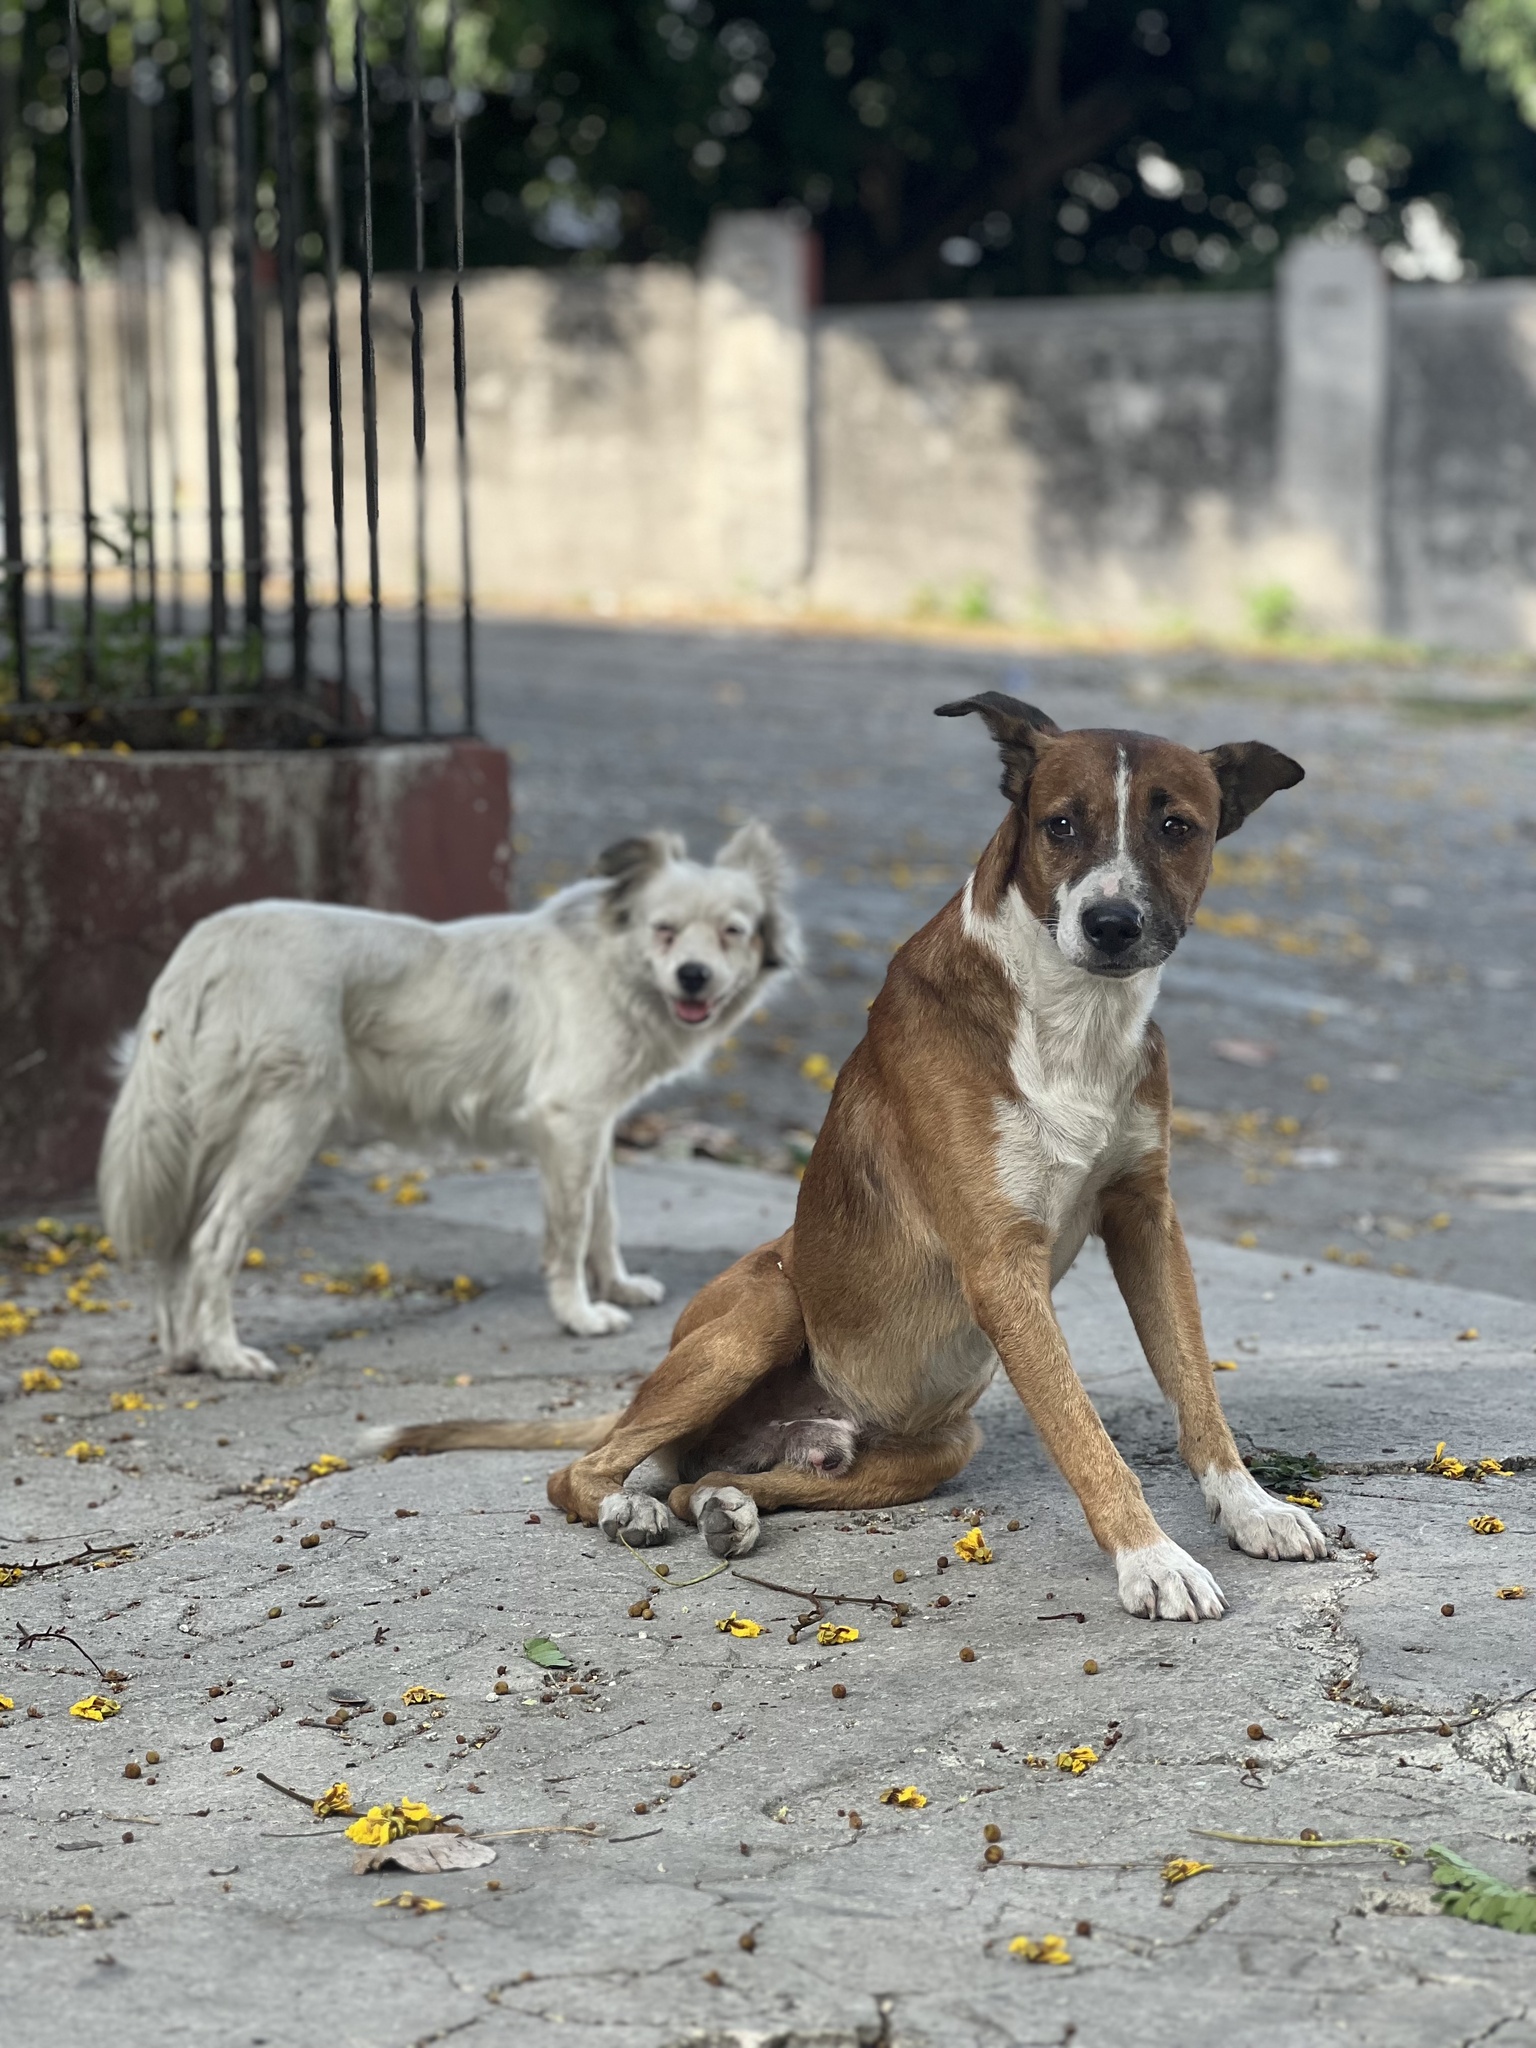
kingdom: Animalia
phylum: Chordata
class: Mammalia
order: Carnivora
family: Canidae
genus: Canis
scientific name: Canis lupus
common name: Gray wolf
